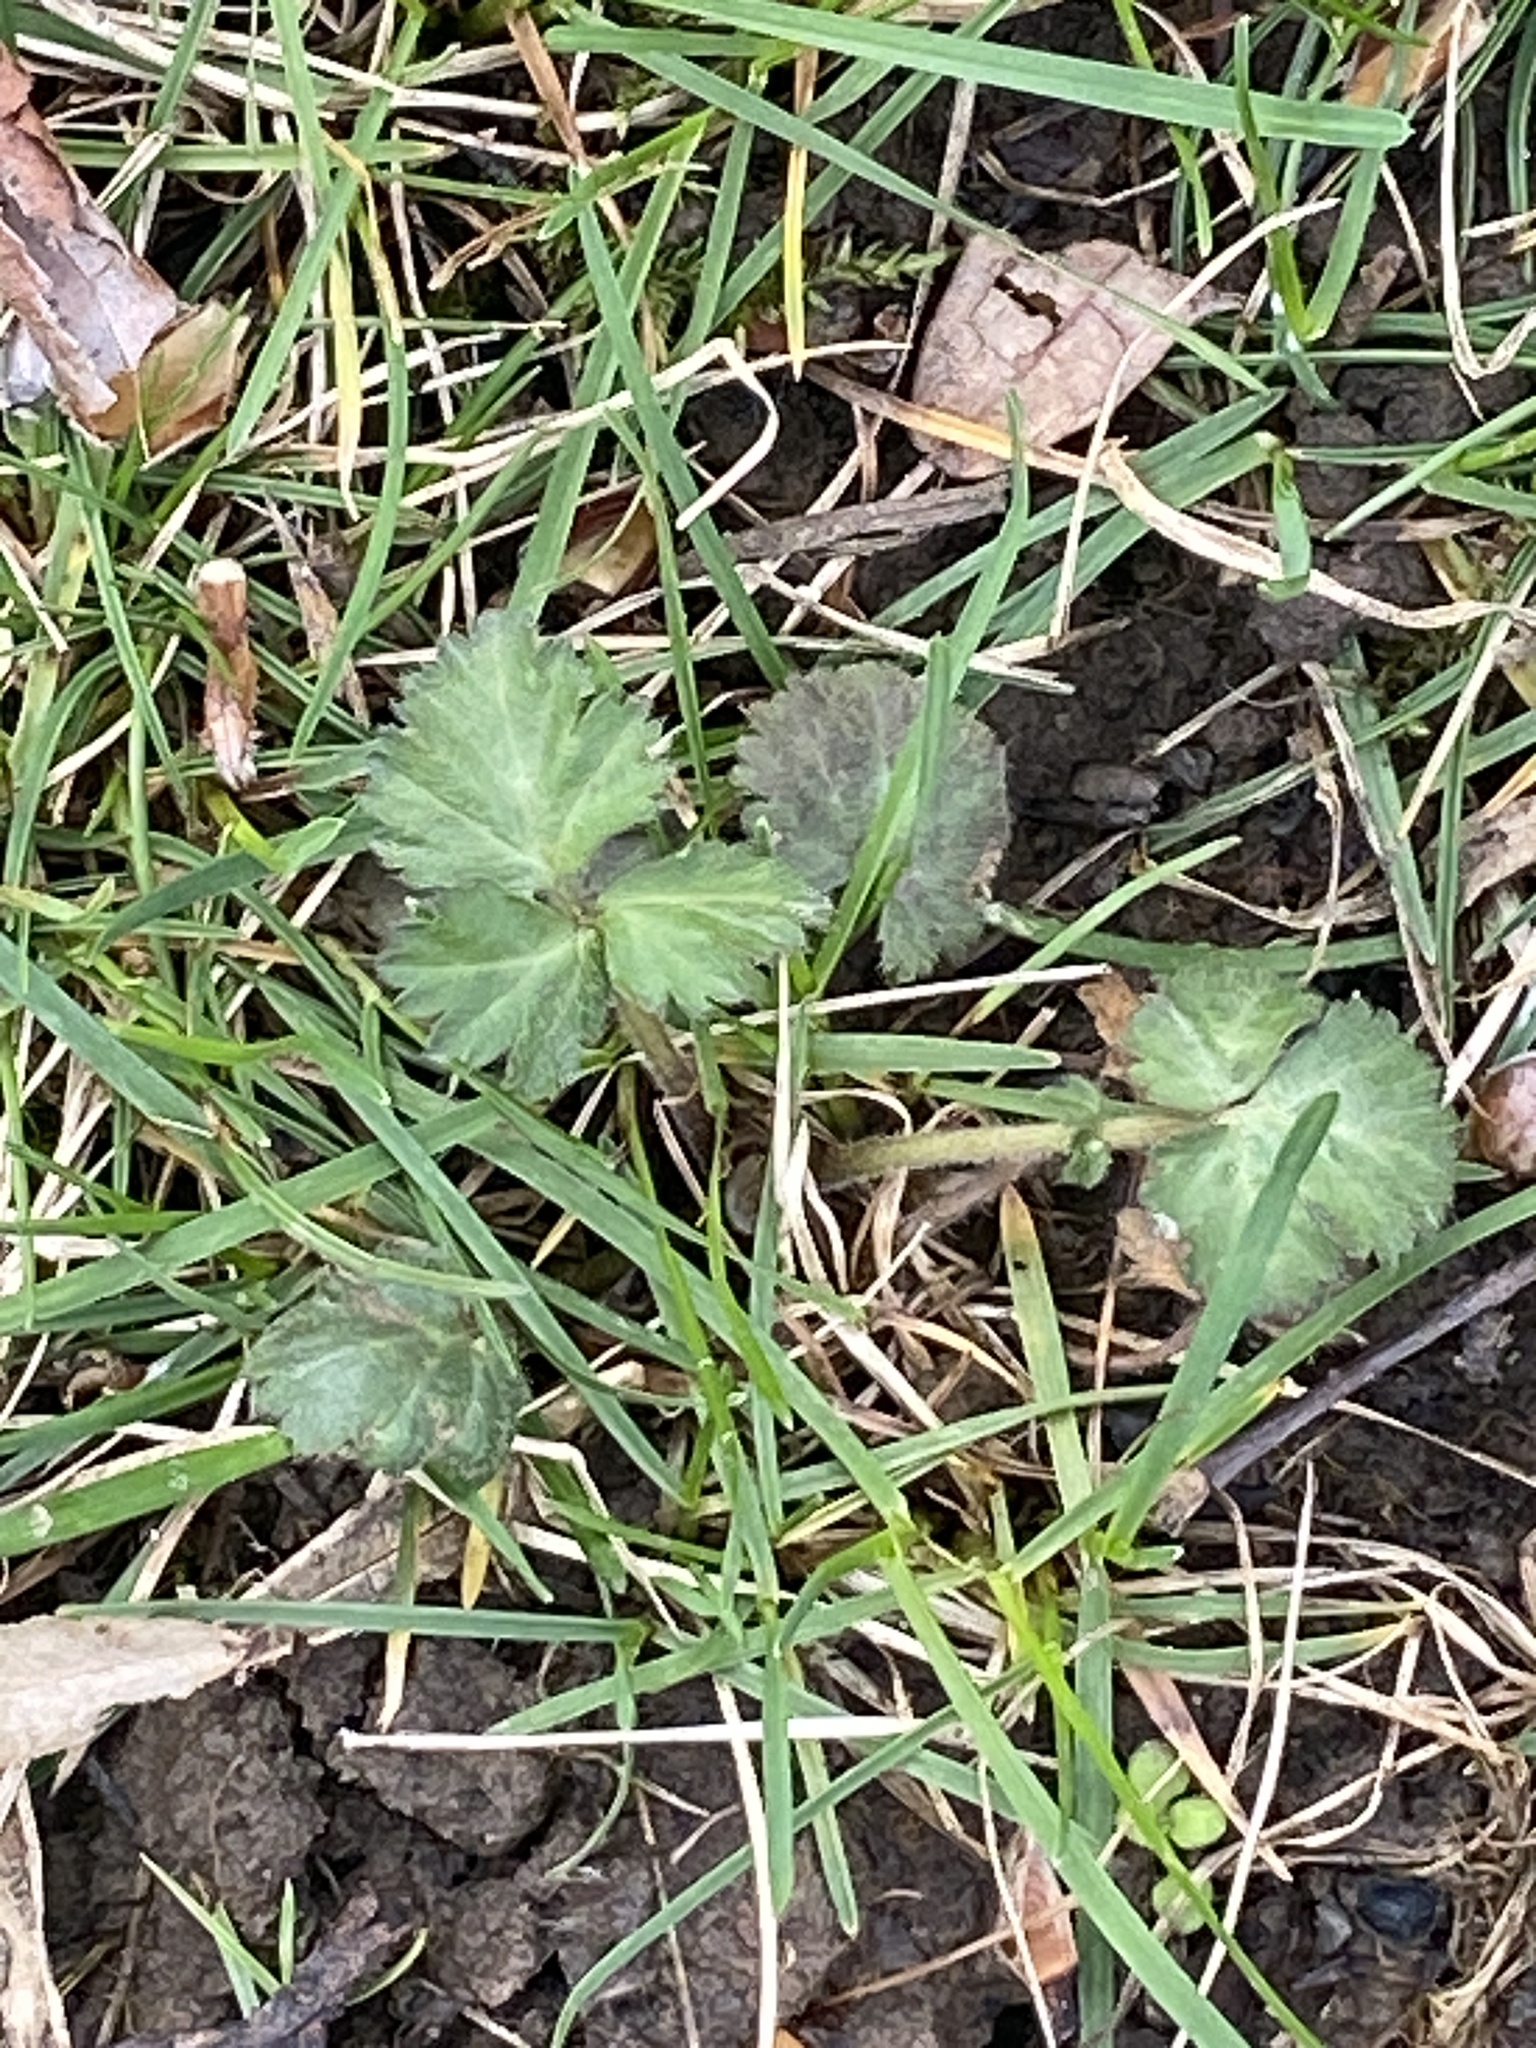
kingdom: Plantae
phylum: Tracheophyta
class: Magnoliopsida
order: Rosales
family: Rosaceae
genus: Geum
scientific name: Geum canadense
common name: White avens
